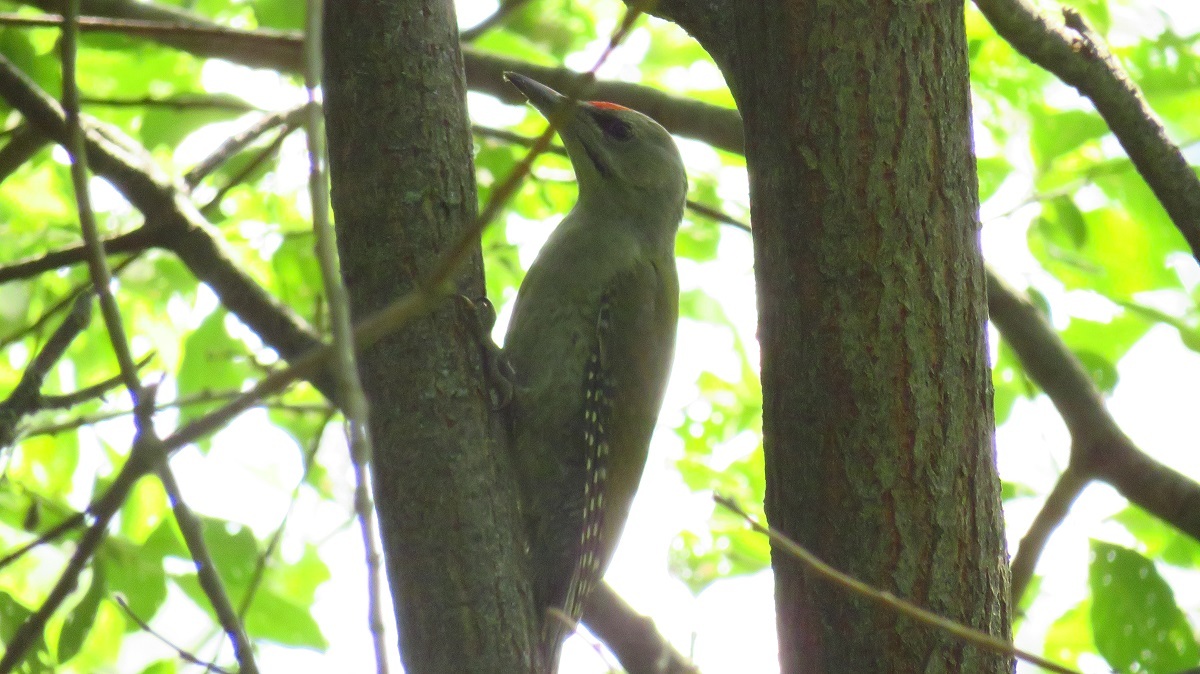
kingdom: Animalia
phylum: Chordata
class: Aves
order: Piciformes
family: Picidae
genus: Picus
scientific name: Picus canus
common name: Grey-headed woodpecker
